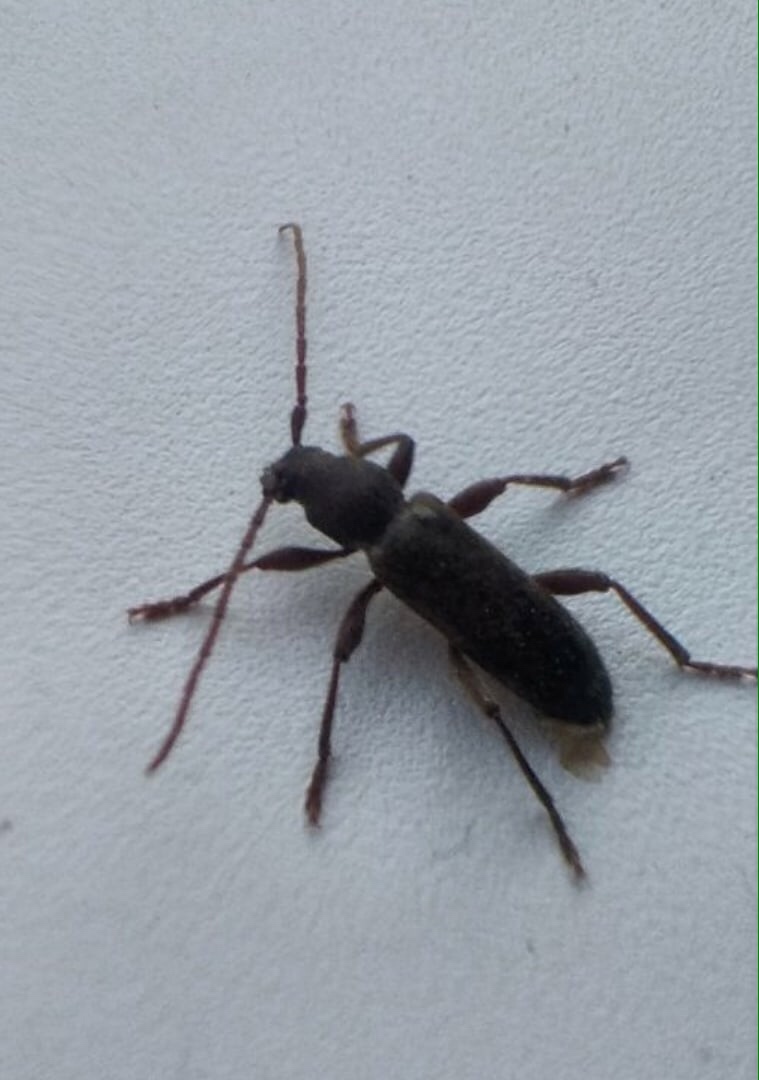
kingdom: Animalia
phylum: Arthropoda
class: Insecta
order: Coleoptera
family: Cerambycidae
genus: Trichoferus
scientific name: Trichoferus campestris
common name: Velvet long horned beetle
